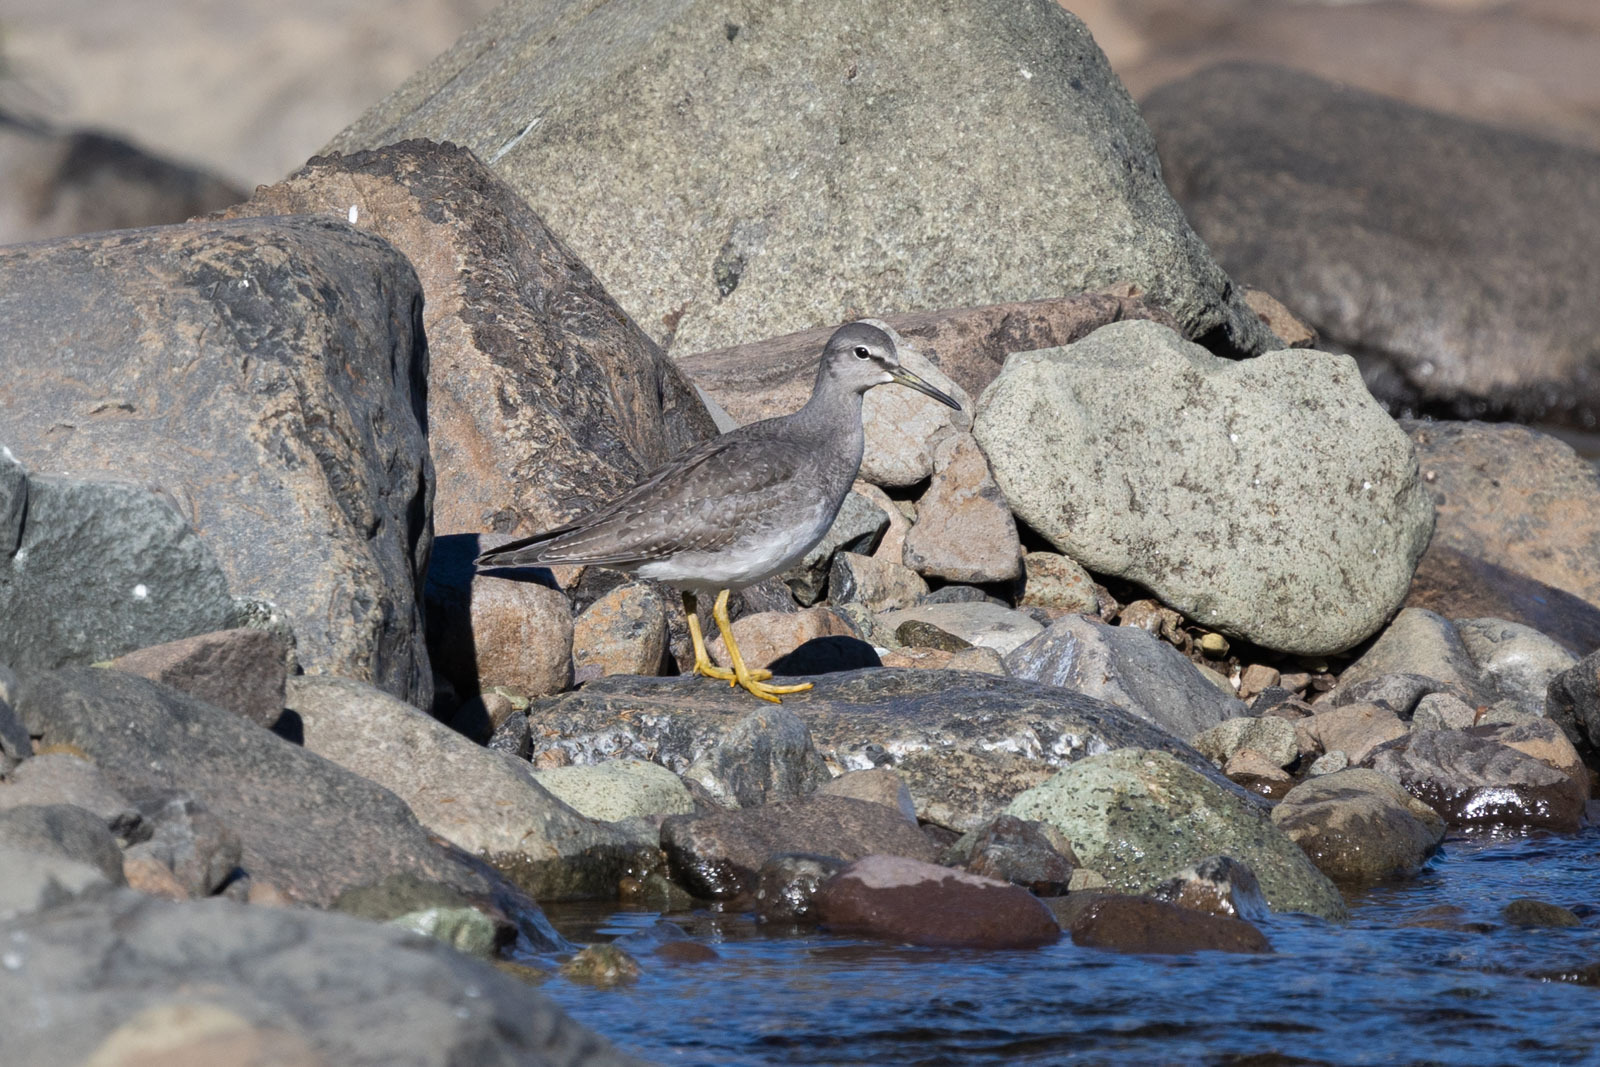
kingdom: Animalia
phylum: Chordata
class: Aves
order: Charadriiformes
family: Scolopacidae
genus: Tringa
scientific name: Tringa brevipes
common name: Grey-tailed tattler
